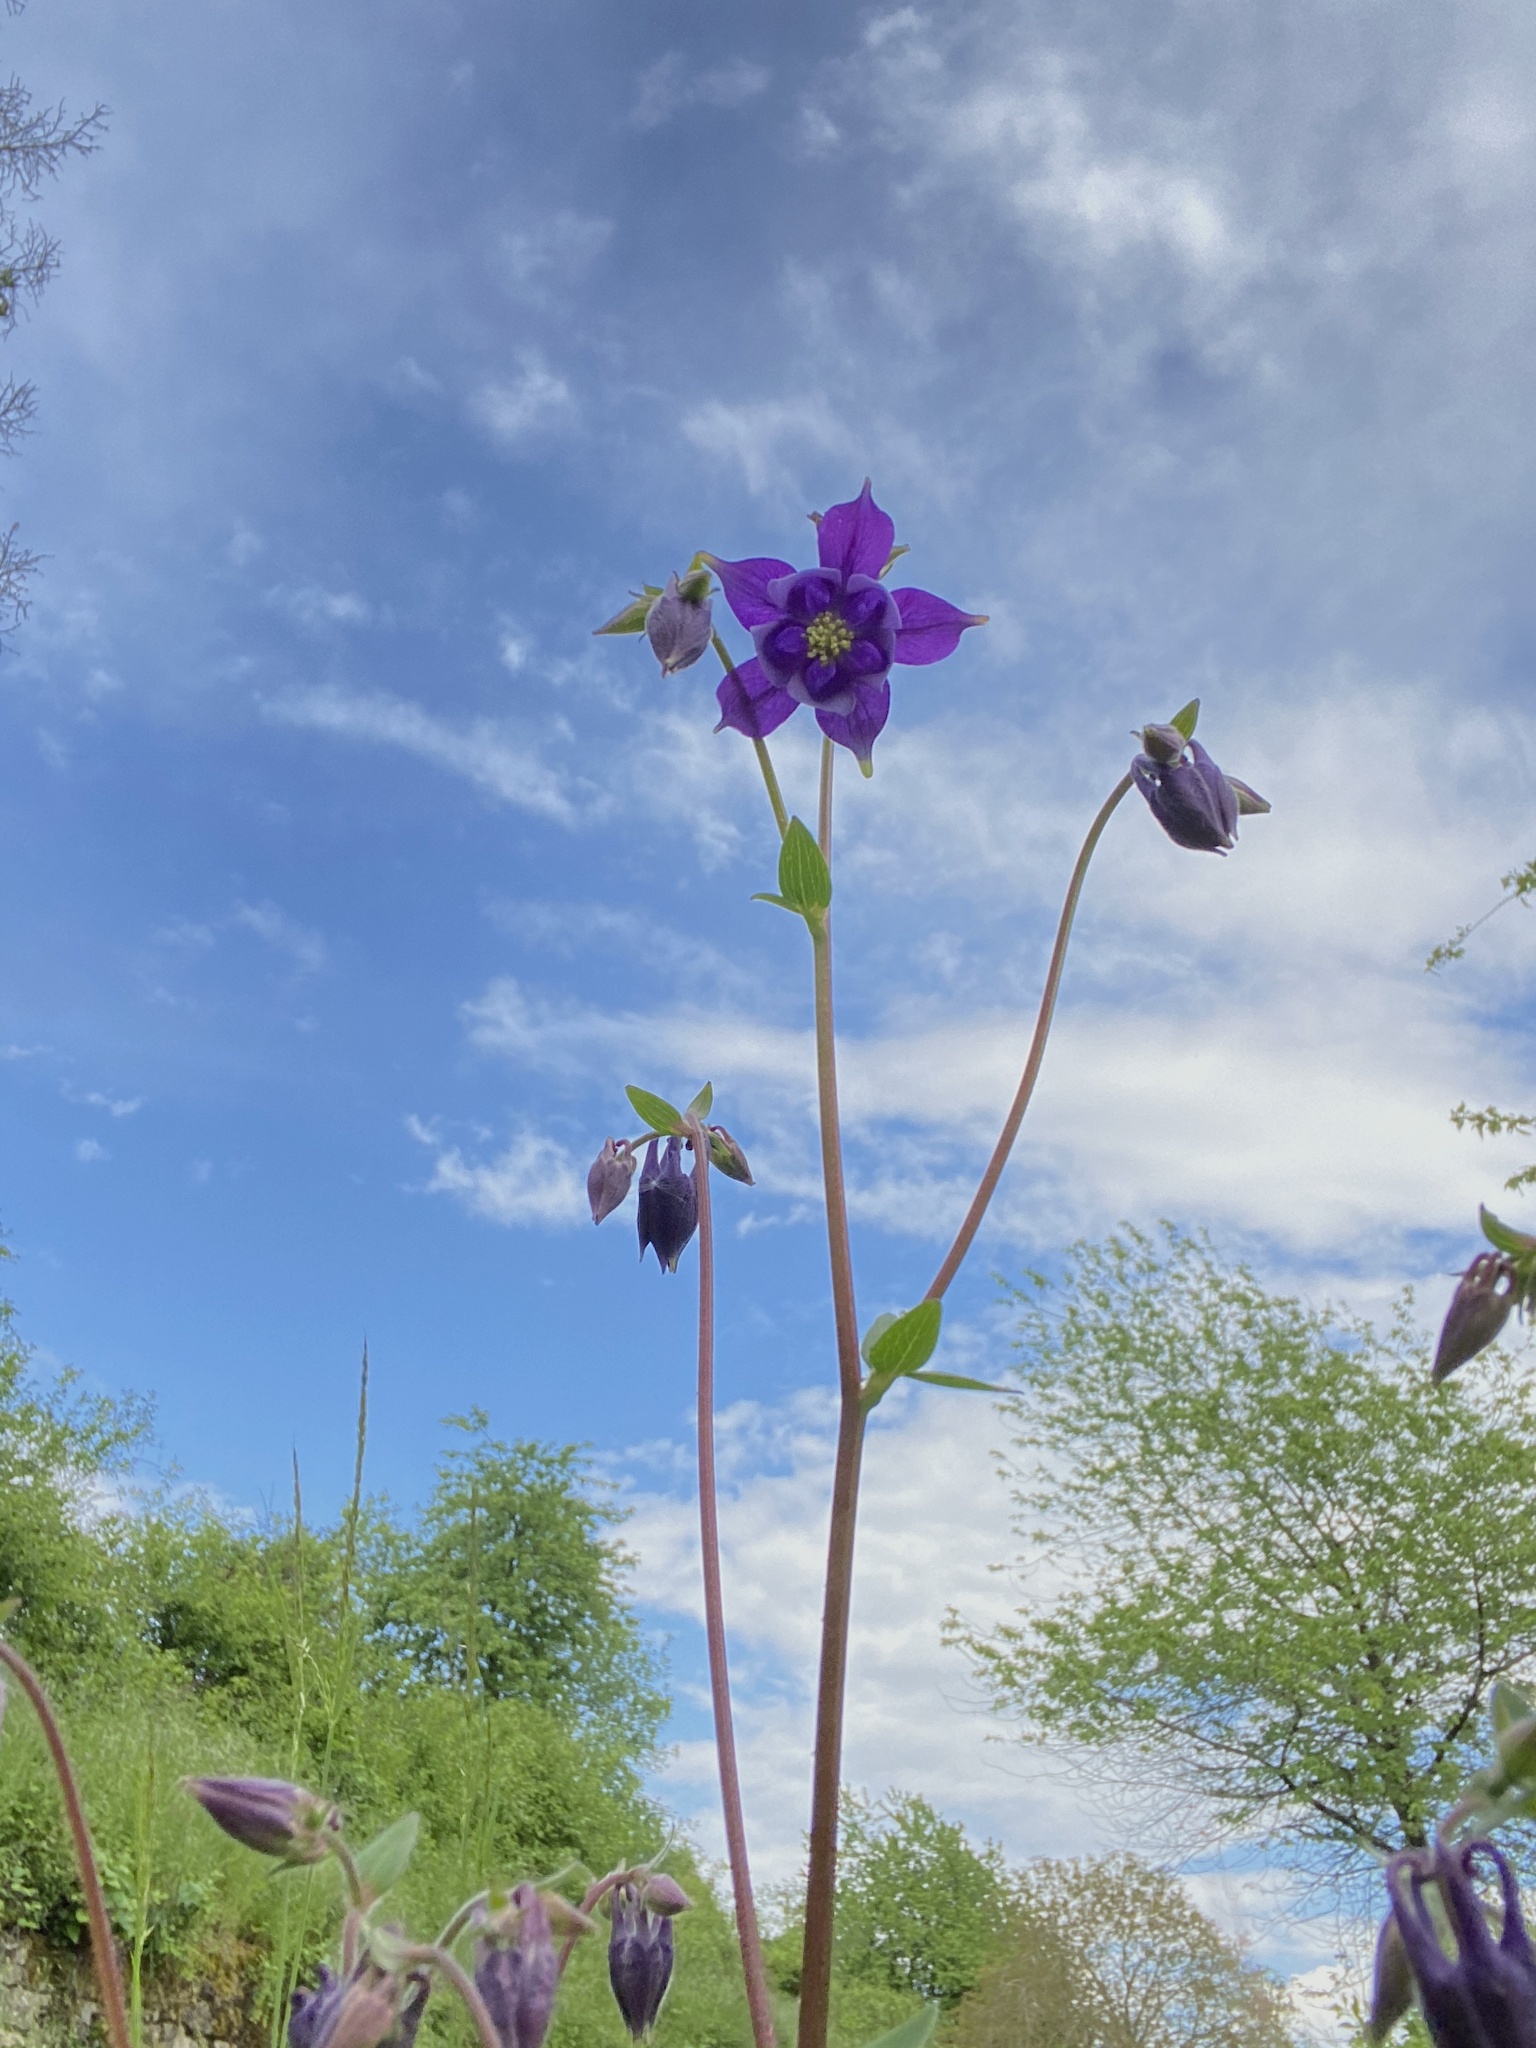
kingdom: Plantae
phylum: Tracheophyta
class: Magnoliopsida
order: Ranunculales
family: Ranunculaceae
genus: Aquilegia
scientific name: Aquilegia vulgaris
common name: Columbine
